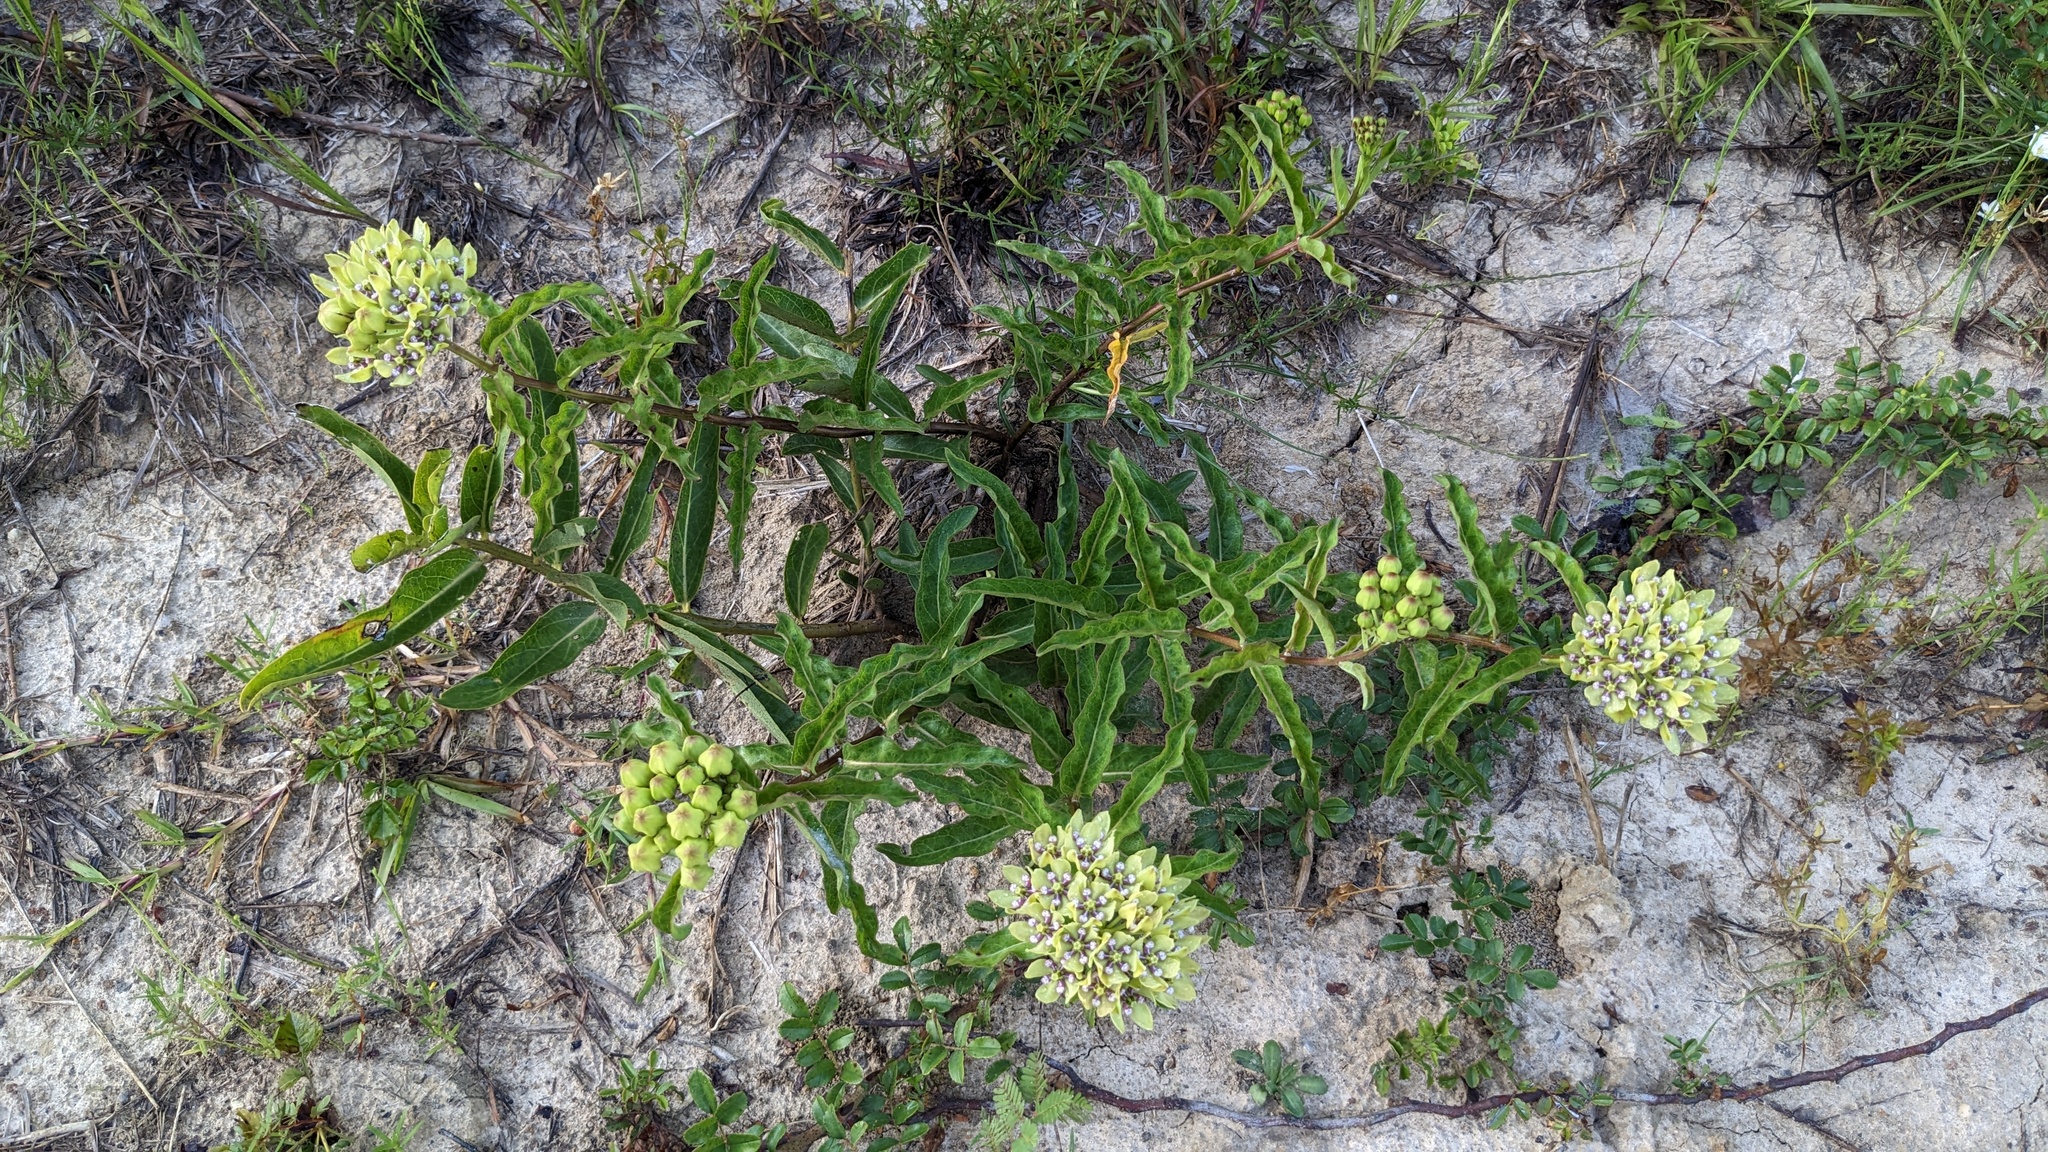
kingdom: Plantae
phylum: Tracheophyta
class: Magnoliopsida
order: Gentianales
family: Apocynaceae
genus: Asclepias
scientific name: Asclepias viridis
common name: Antelope-horns
